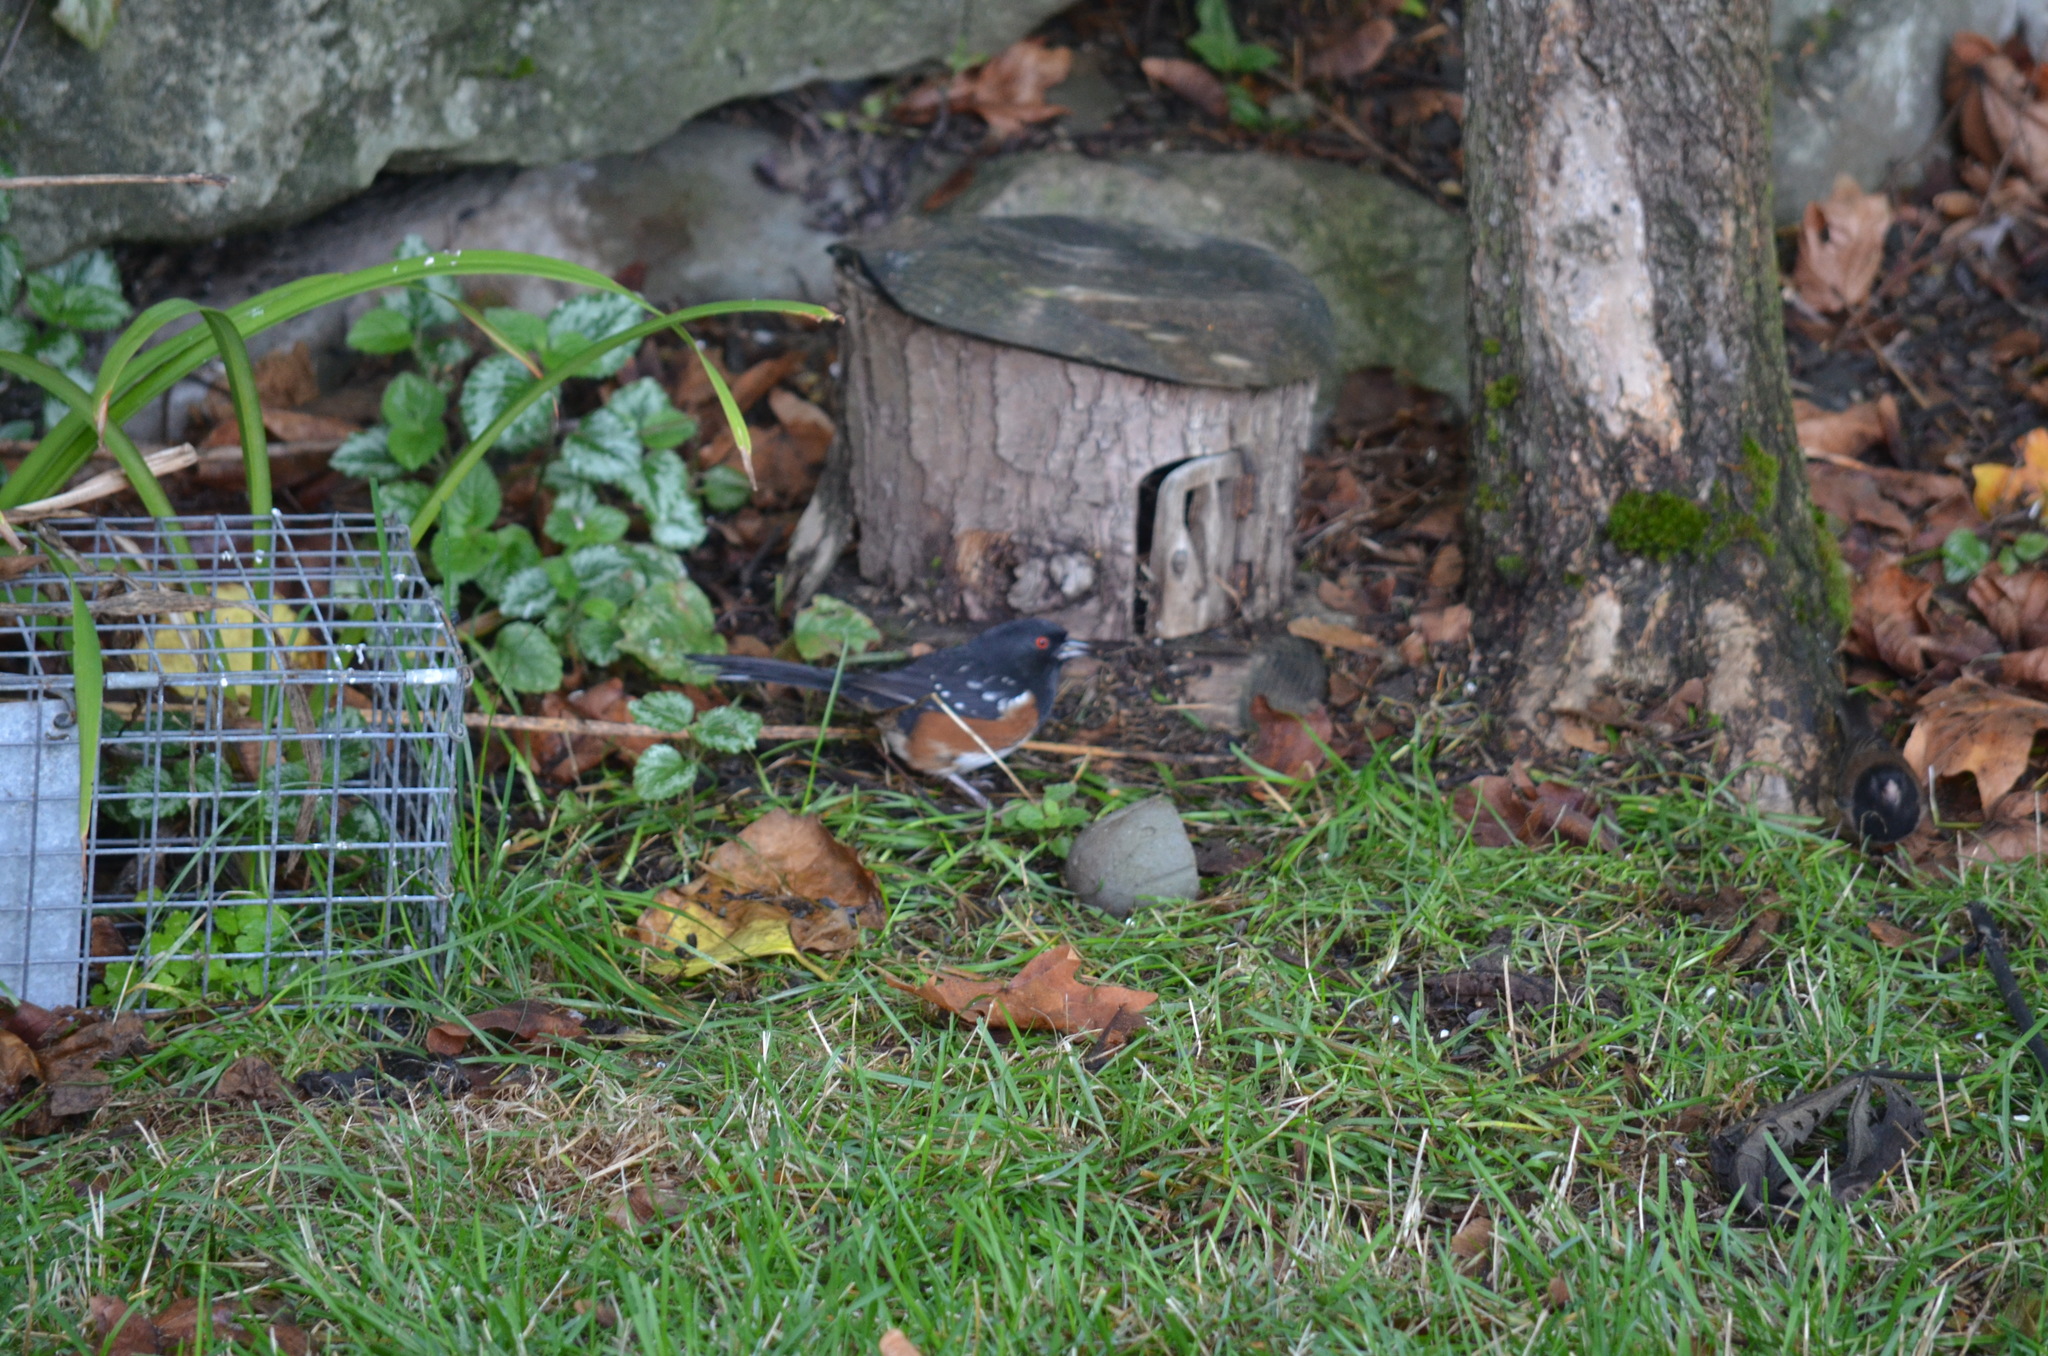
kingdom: Animalia
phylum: Chordata
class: Aves
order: Passeriformes
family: Passerellidae
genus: Pipilo
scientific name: Pipilo maculatus
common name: Spotted towhee
